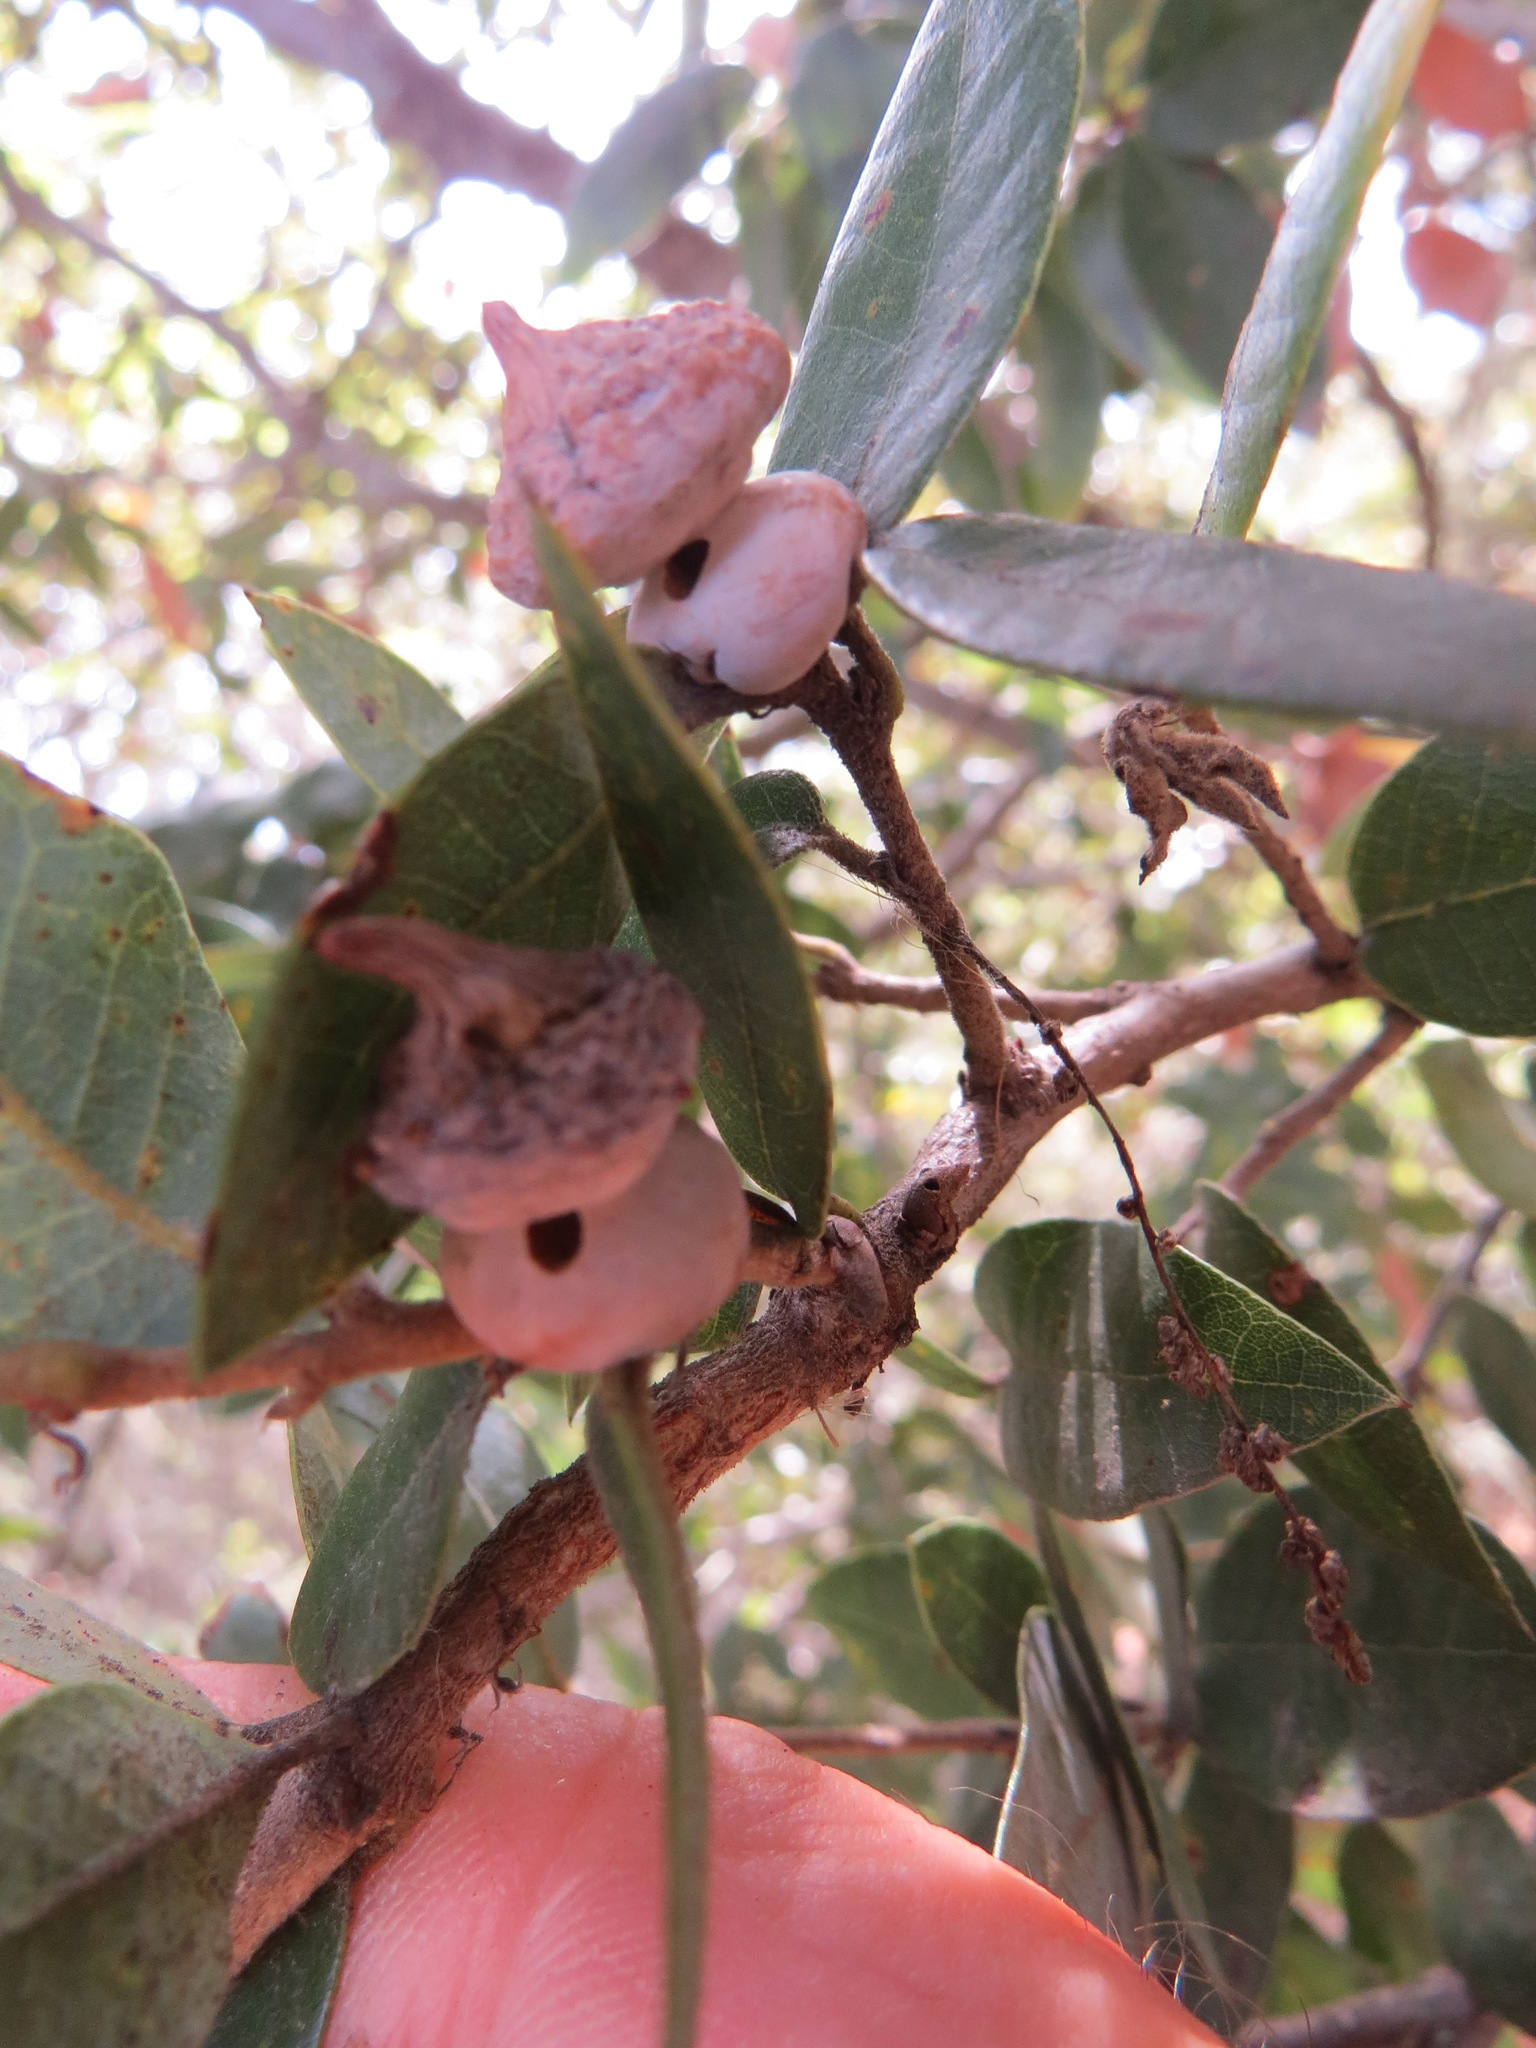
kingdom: Animalia
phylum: Arthropoda
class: Insecta
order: Hymenoptera
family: Cynipidae
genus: Heteroecus
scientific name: Heteroecus
